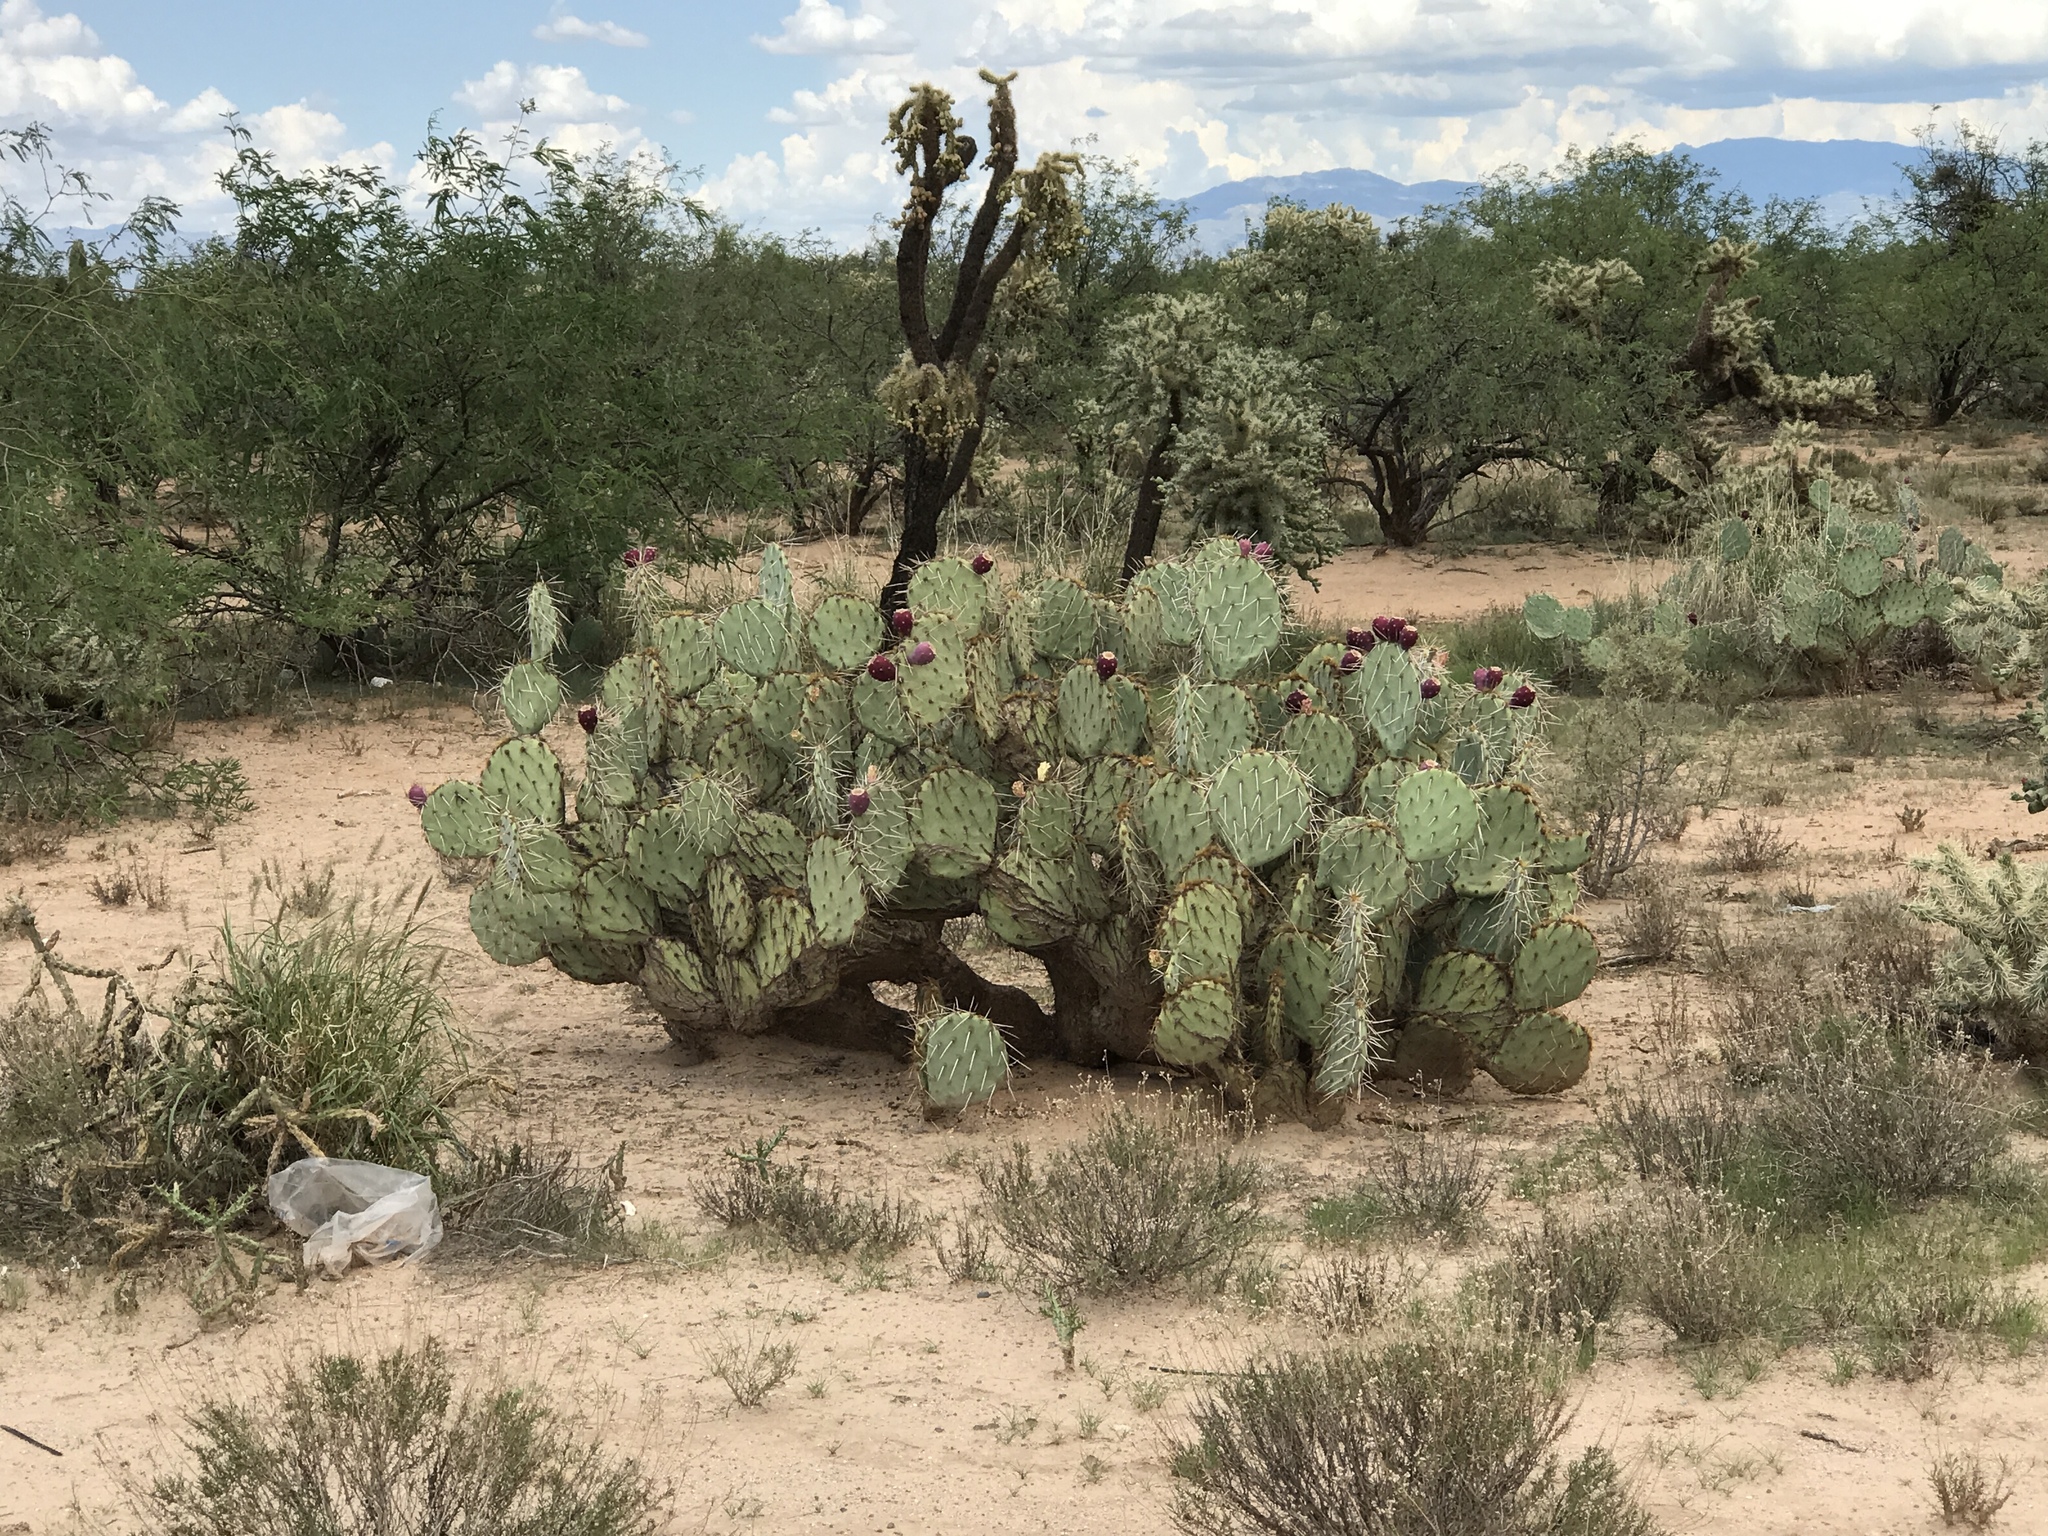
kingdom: Plantae
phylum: Tracheophyta
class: Magnoliopsida
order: Caryophyllales
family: Cactaceae
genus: Opuntia
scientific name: Opuntia engelmannii
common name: Cactus-apple
